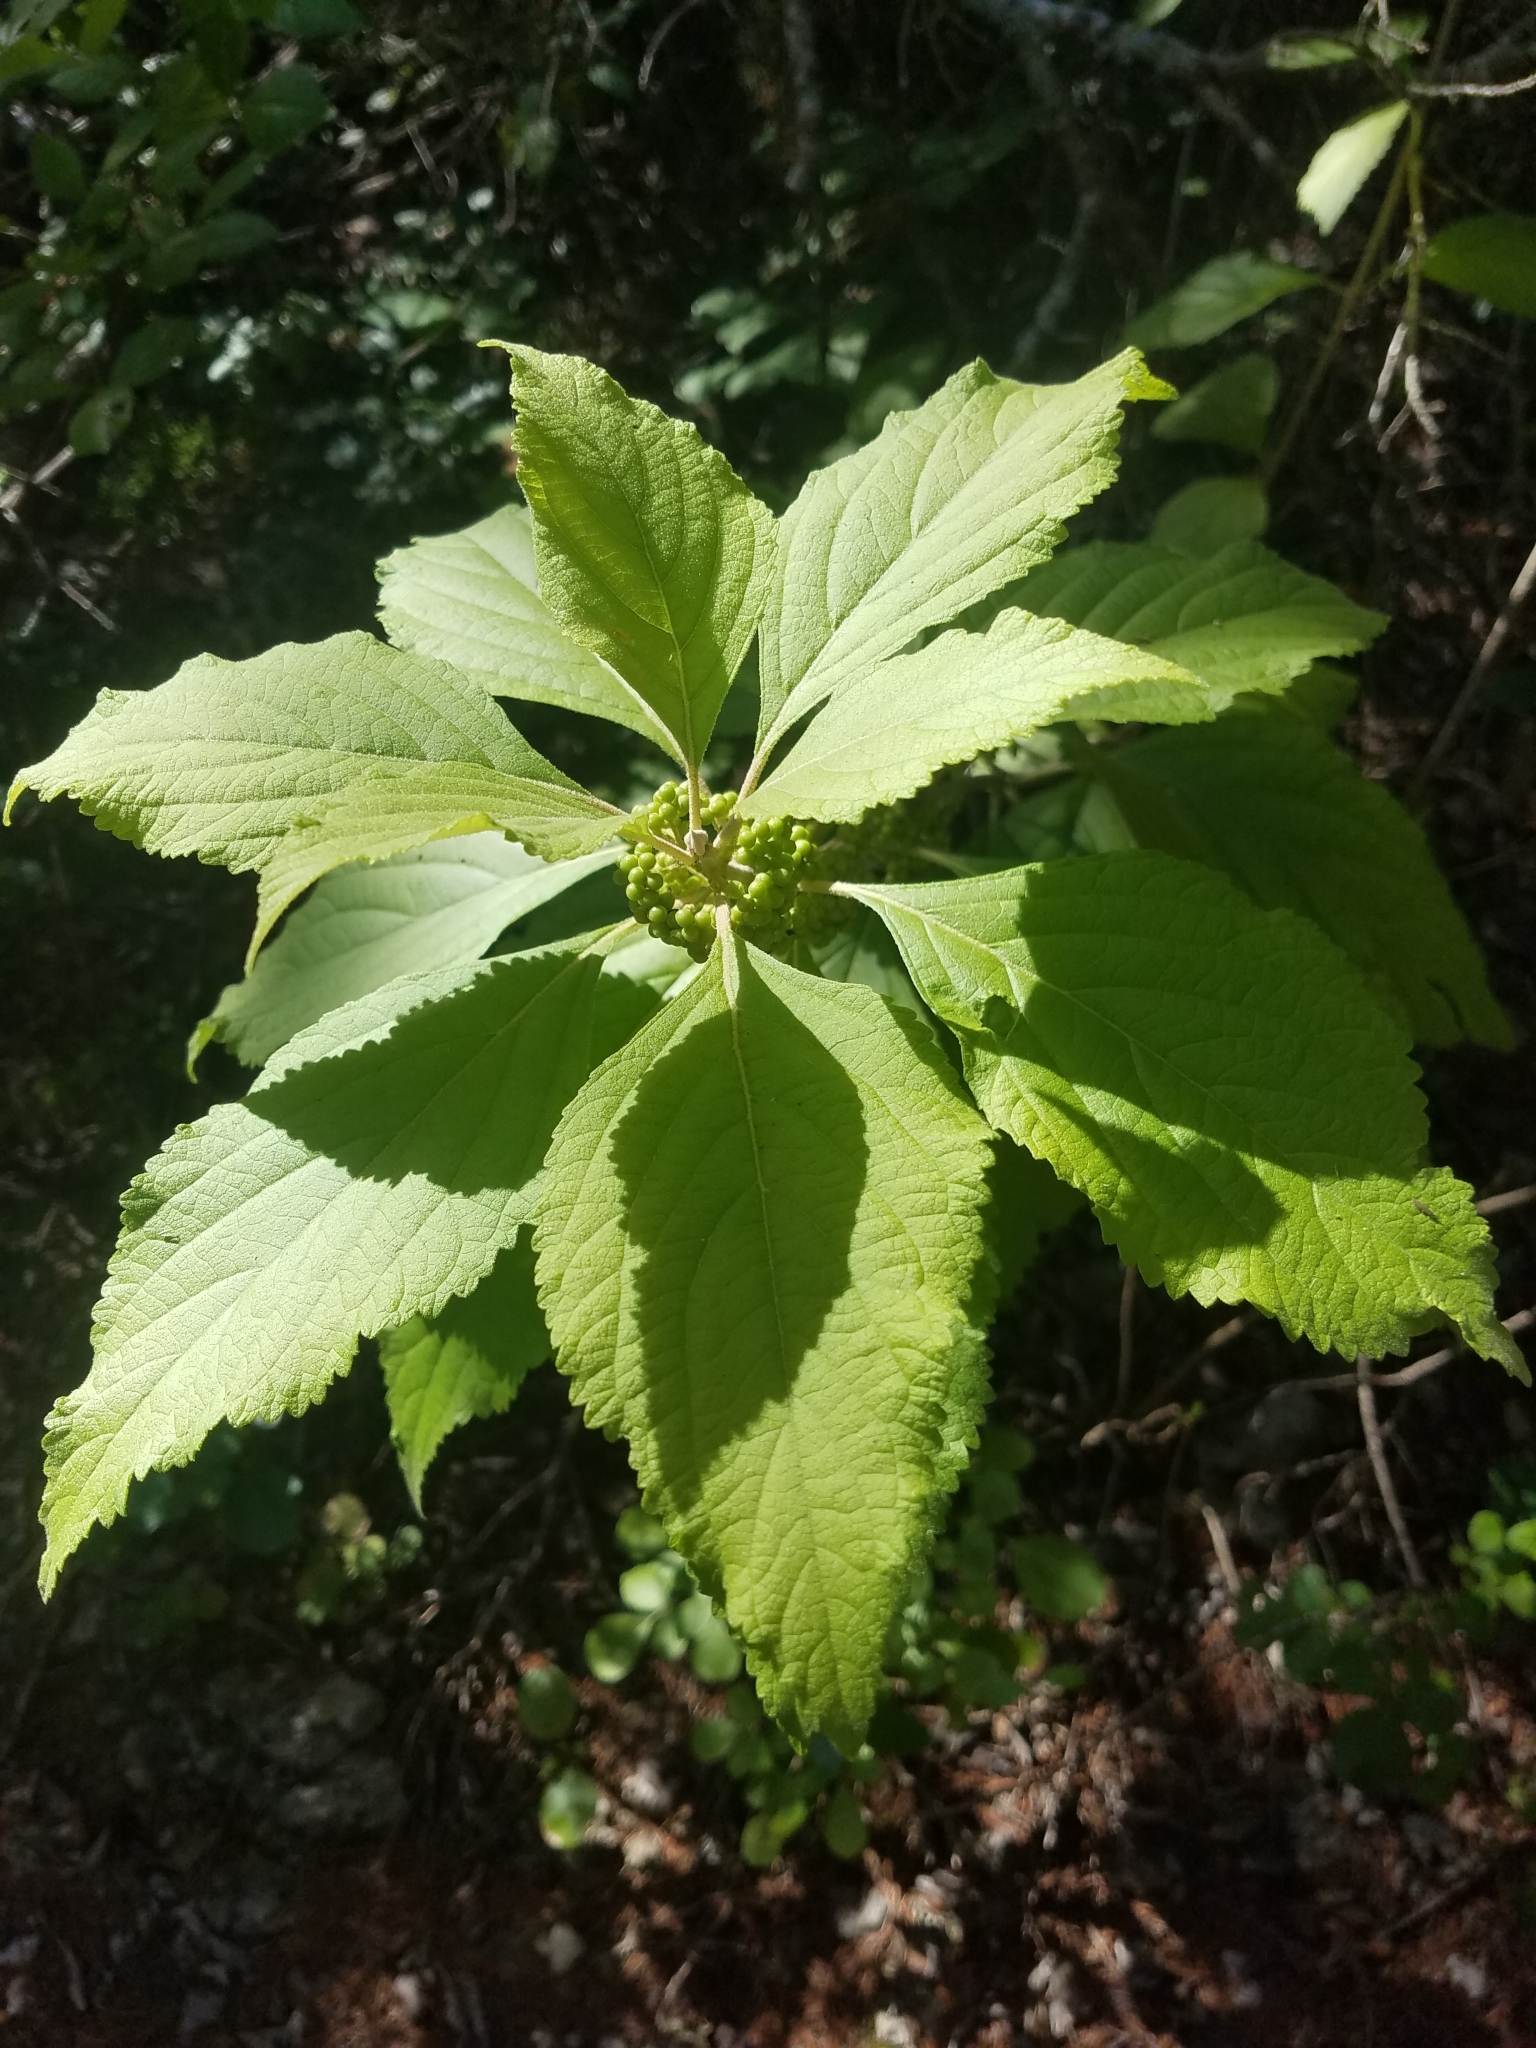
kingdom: Plantae
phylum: Tracheophyta
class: Magnoliopsida
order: Lamiales
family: Lamiaceae
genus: Callicarpa
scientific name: Callicarpa americana
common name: American beautyberry
